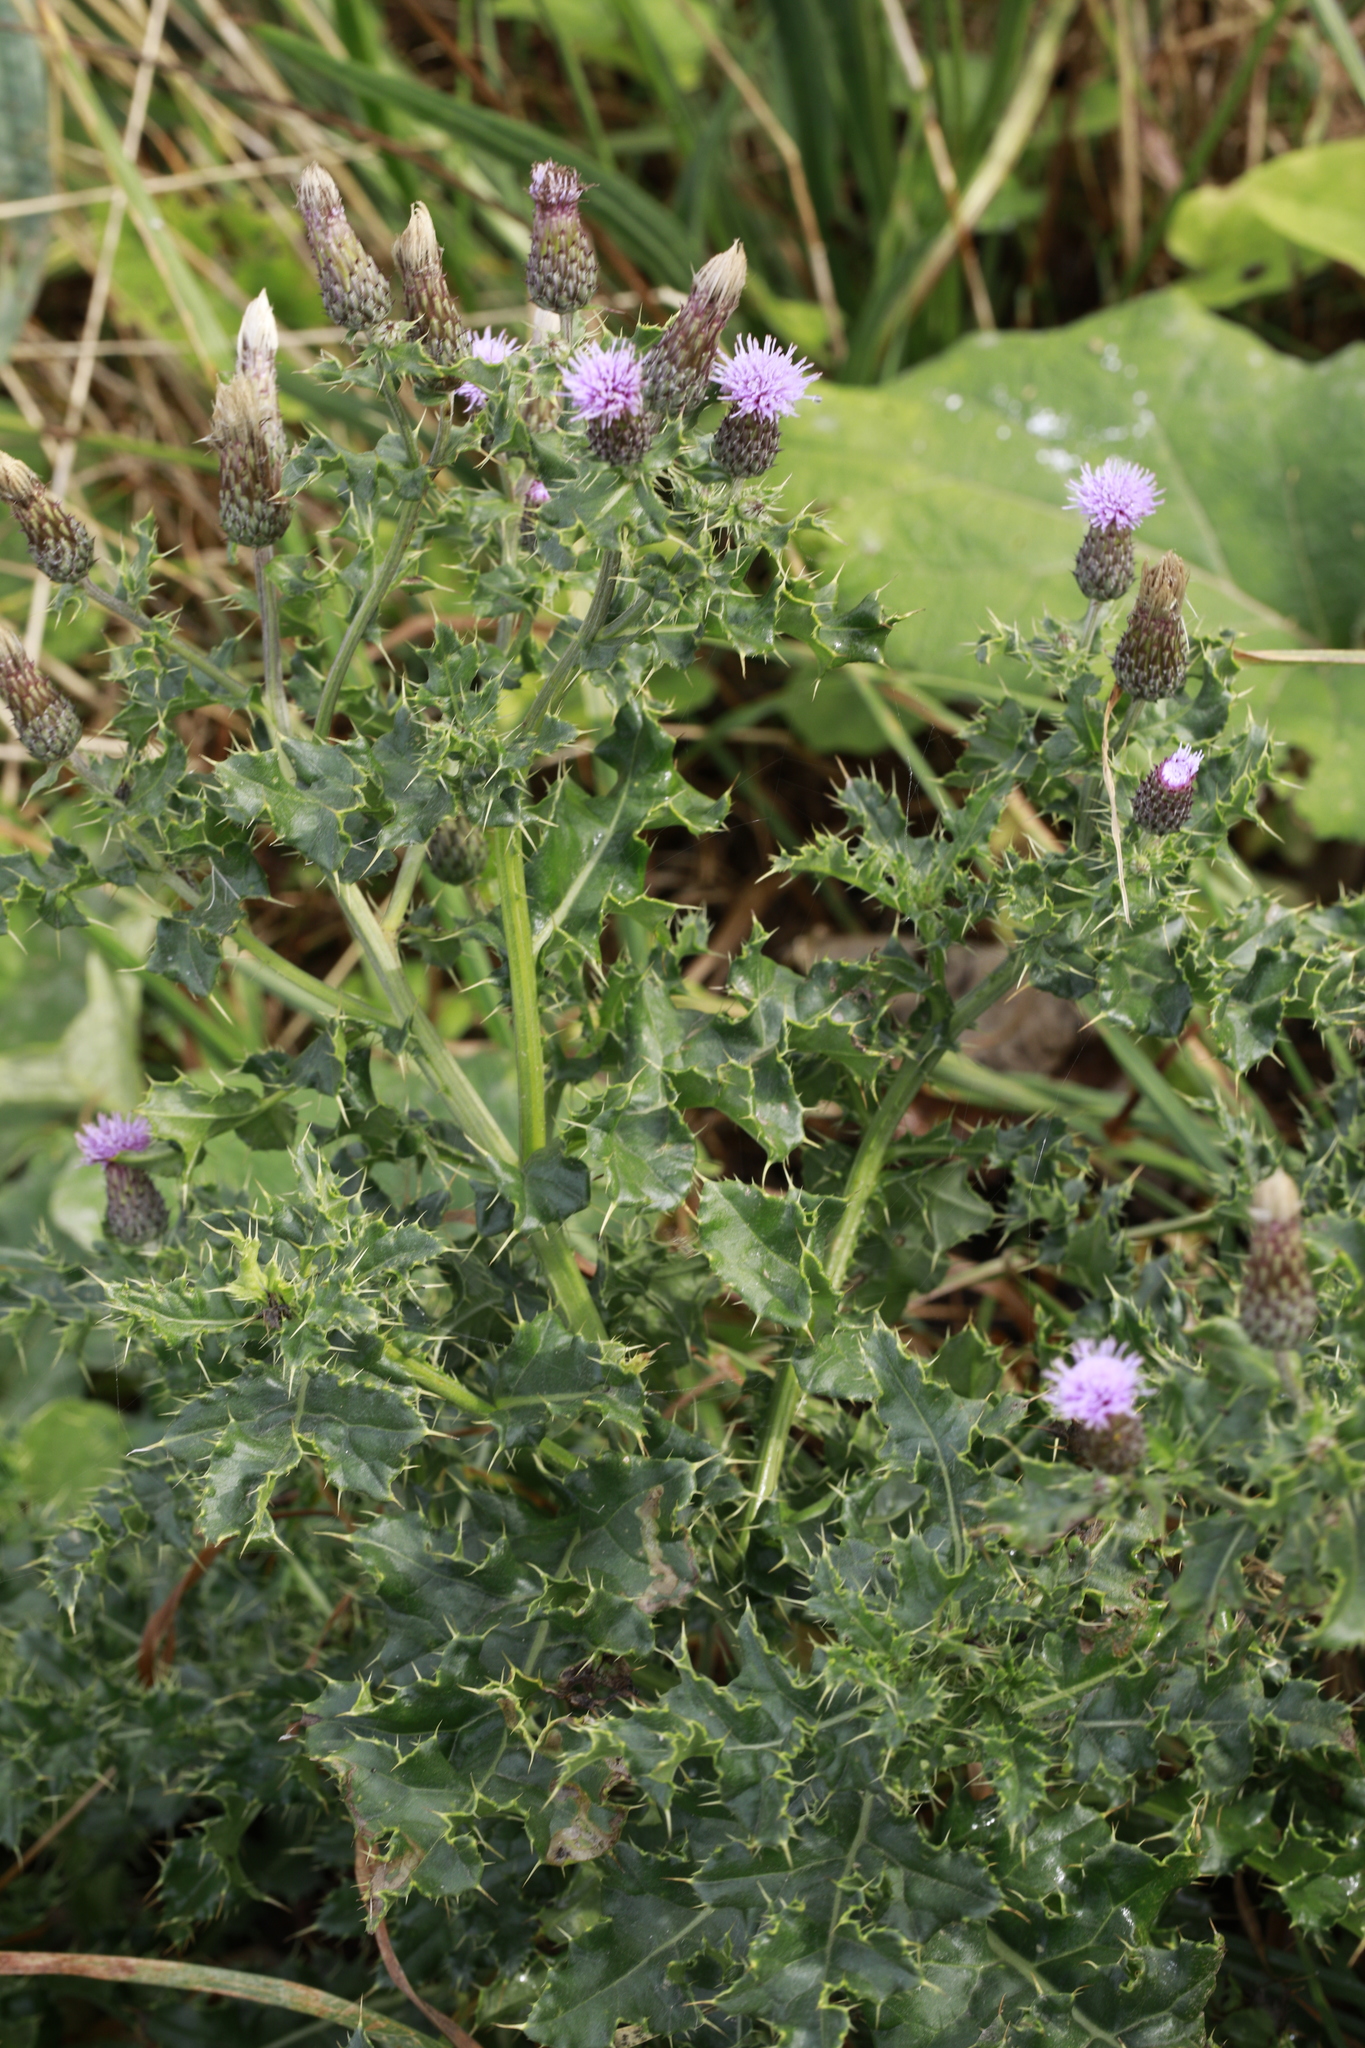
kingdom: Plantae
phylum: Tracheophyta
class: Magnoliopsida
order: Asterales
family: Asteraceae
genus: Cirsium
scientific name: Cirsium arvense
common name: Creeping thistle
